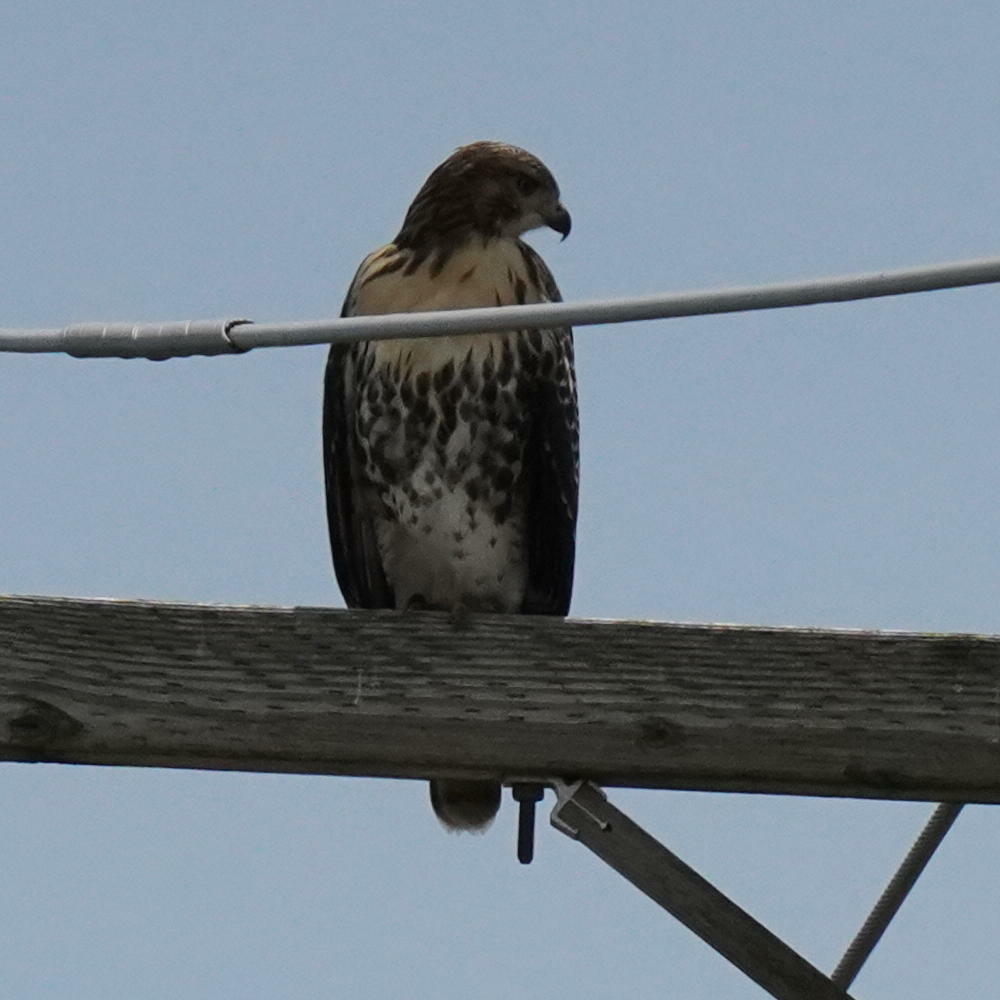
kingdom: Animalia
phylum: Chordata
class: Aves
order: Accipitriformes
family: Accipitridae
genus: Buteo
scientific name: Buteo jamaicensis
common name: Red-tailed hawk
